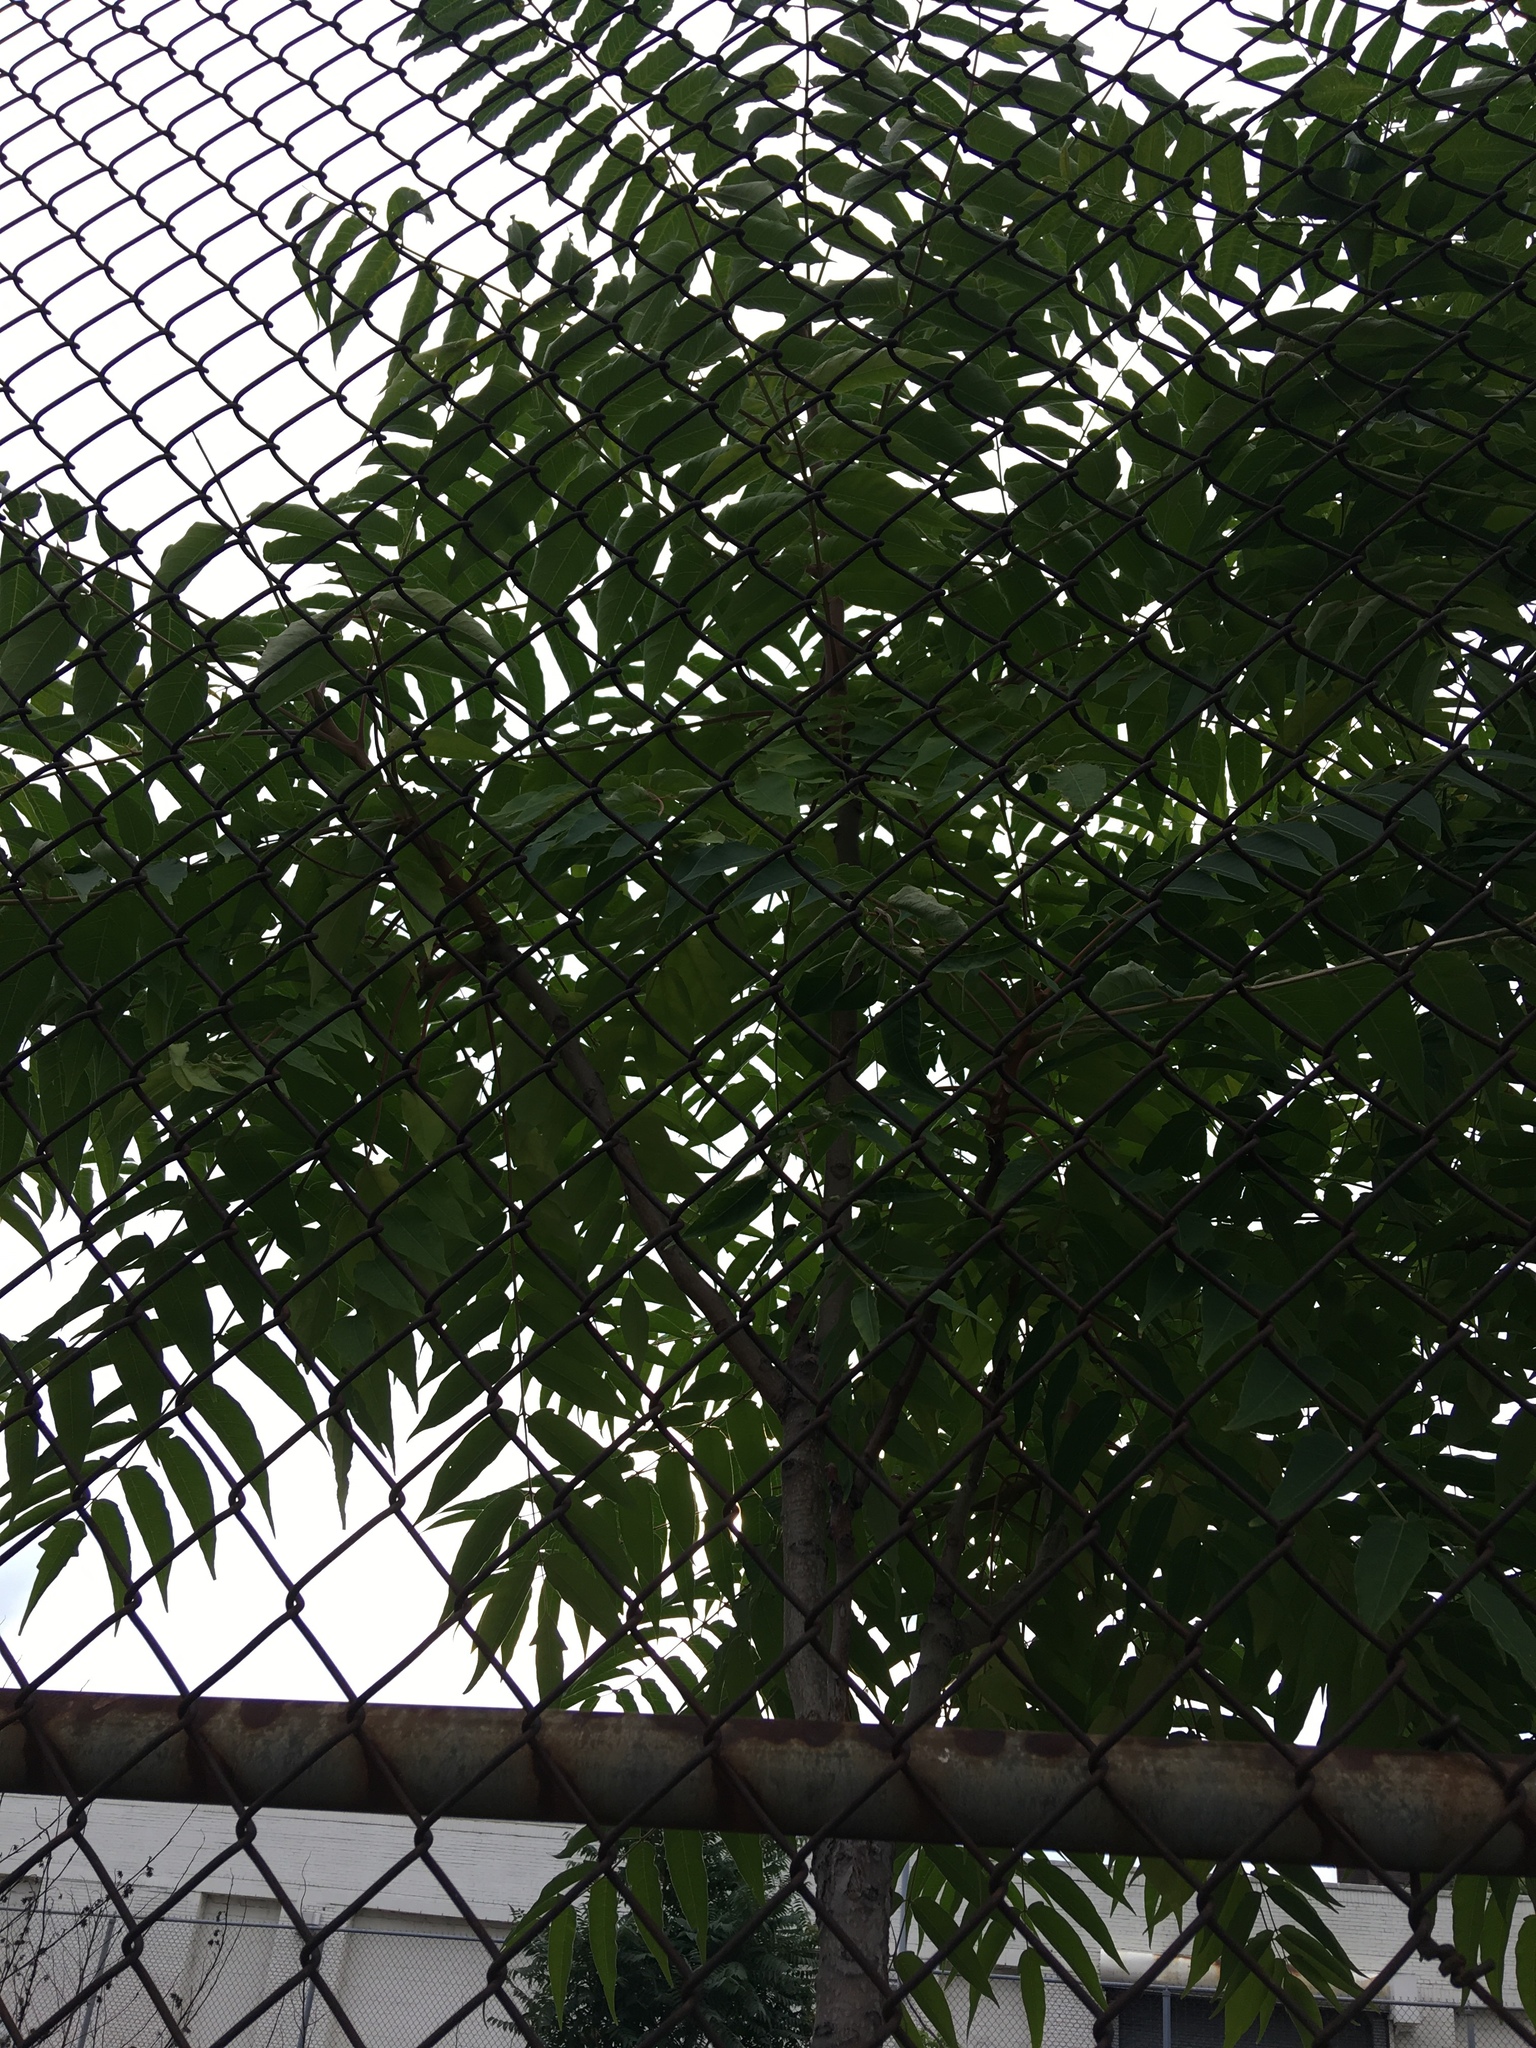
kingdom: Plantae
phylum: Tracheophyta
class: Magnoliopsida
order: Sapindales
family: Simaroubaceae
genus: Ailanthus
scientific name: Ailanthus altissima
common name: Tree-of-heaven
